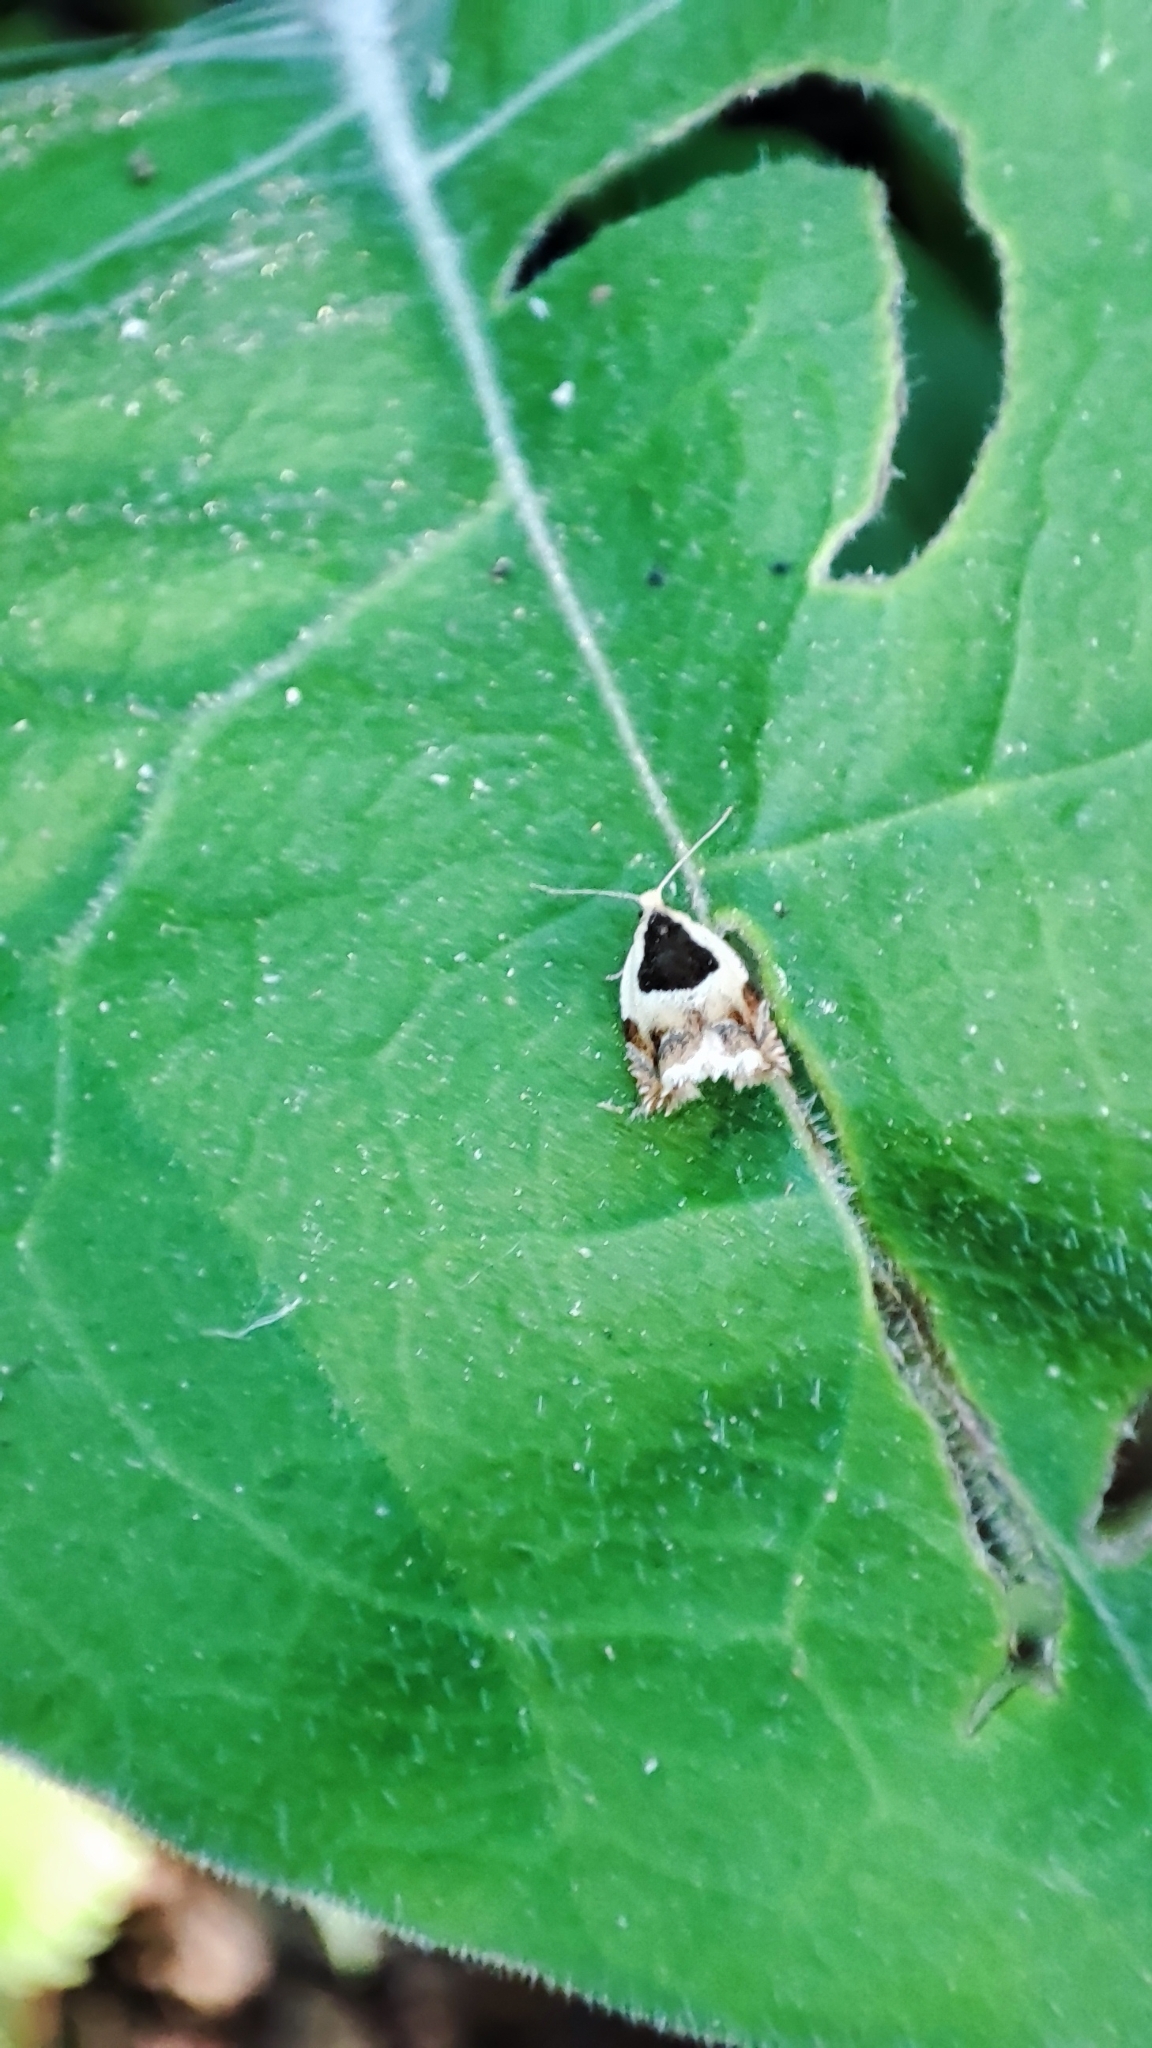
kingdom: Animalia
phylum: Arthropoda
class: Insecta
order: Lepidoptera
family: Tortricidae
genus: Ancylis
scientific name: Ancylis badiana
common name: Common roller
